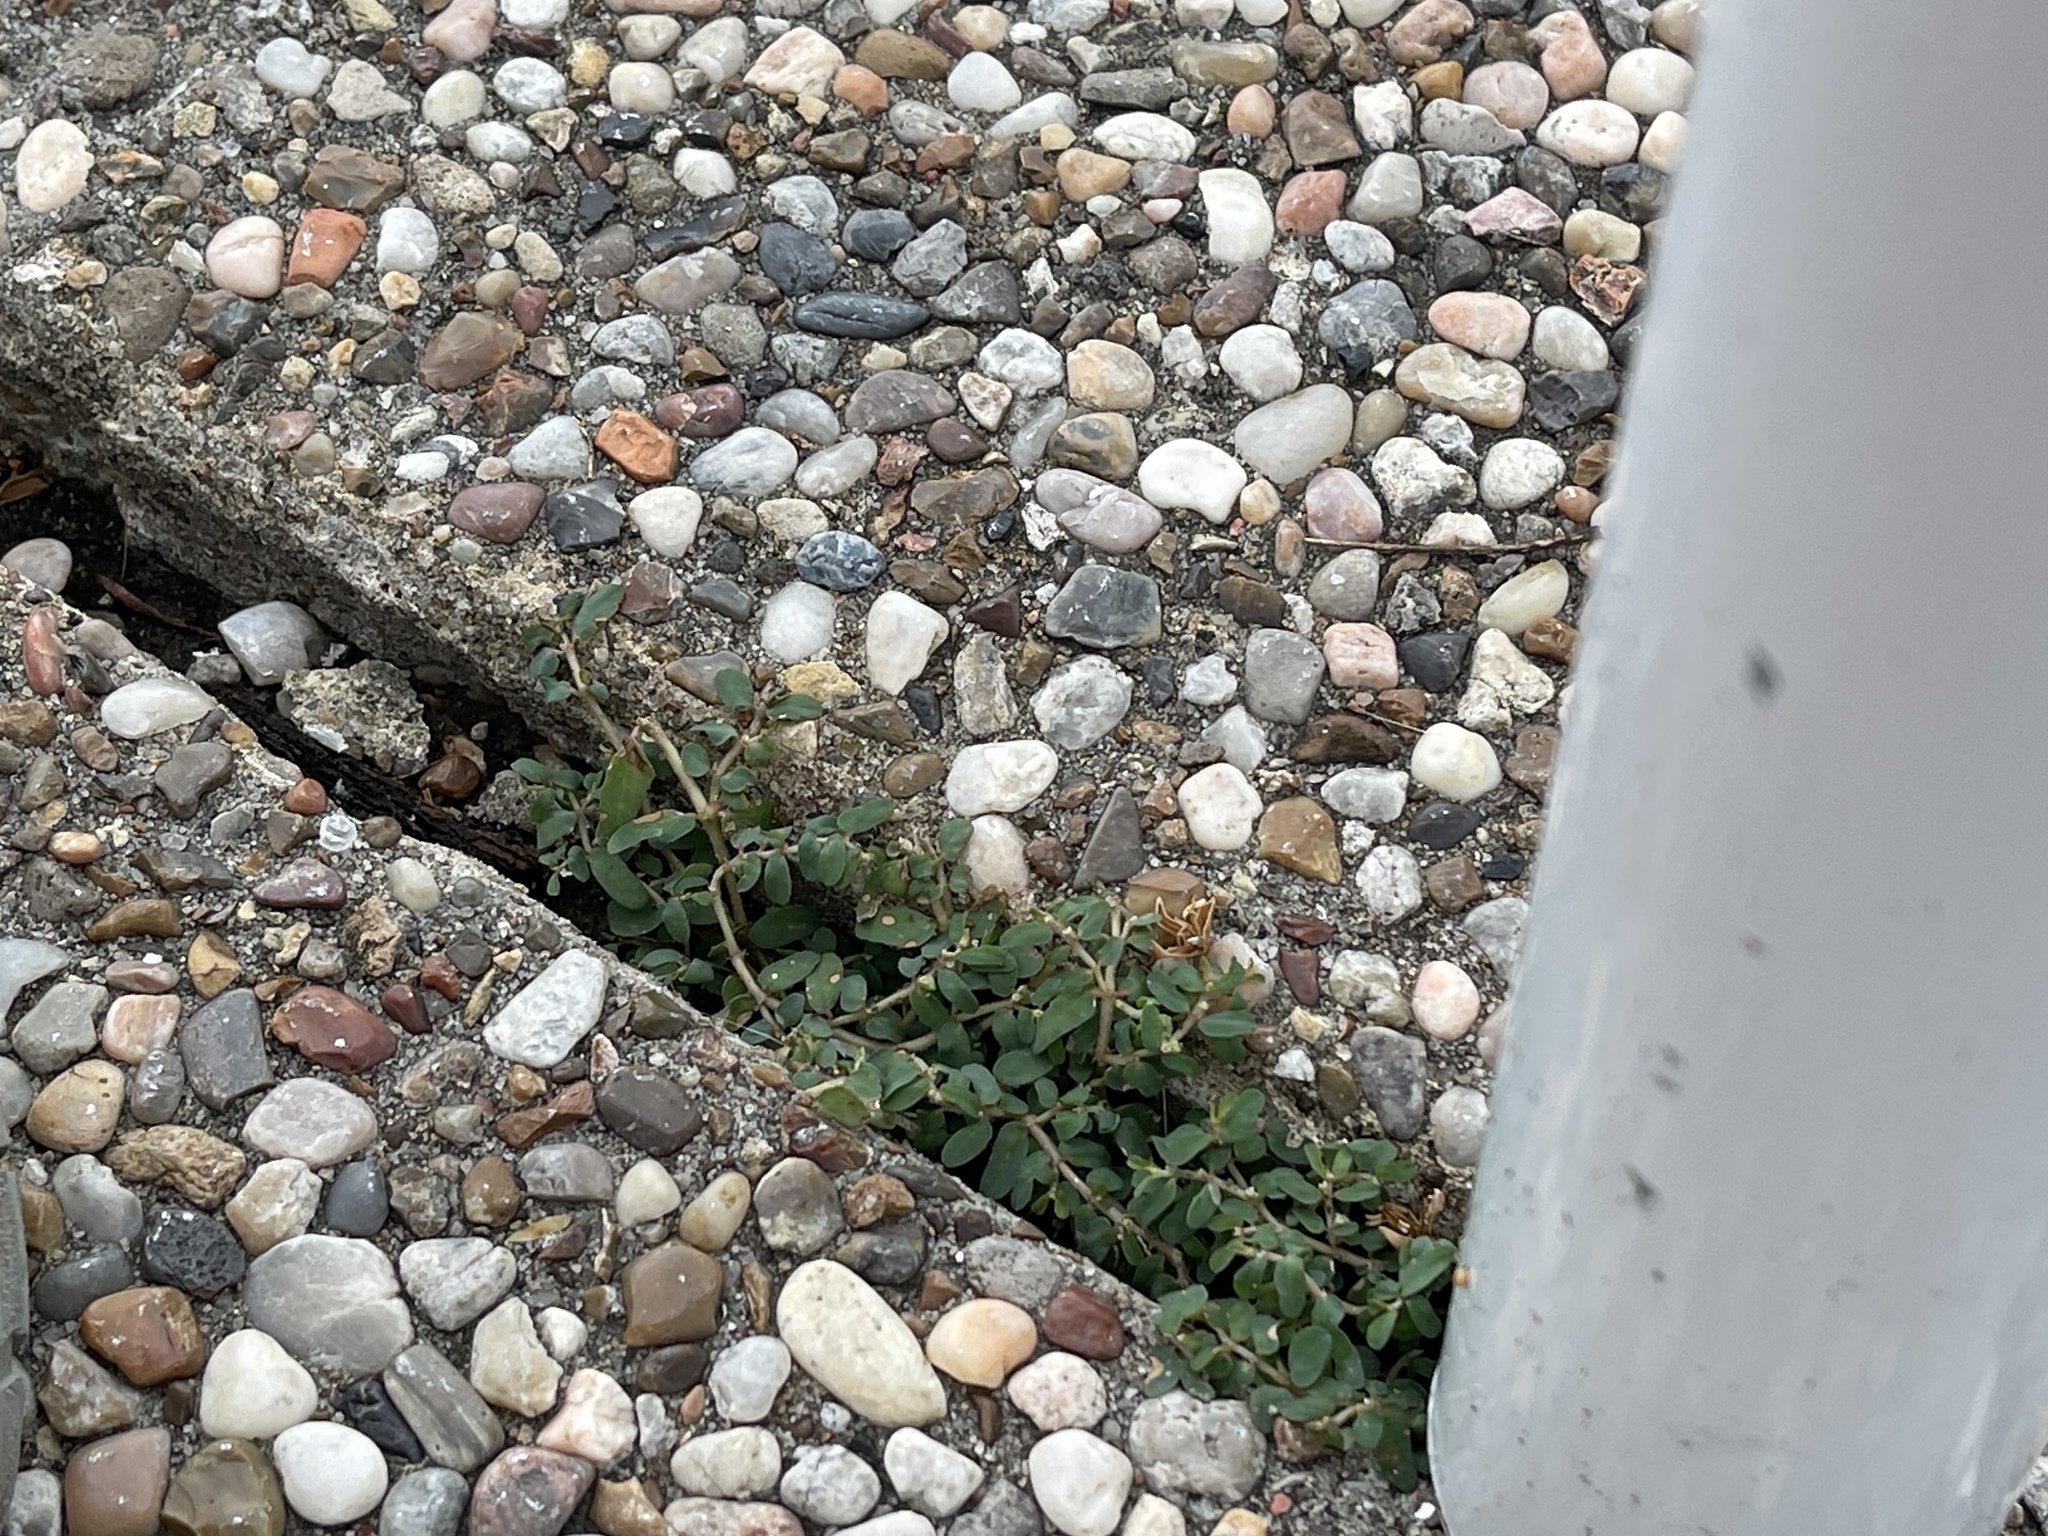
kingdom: Plantae
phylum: Tracheophyta
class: Magnoliopsida
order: Malpighiales
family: Euphorbiaceae
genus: Euphorbia
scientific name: Euphorbia maculata
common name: Spotted spurge
